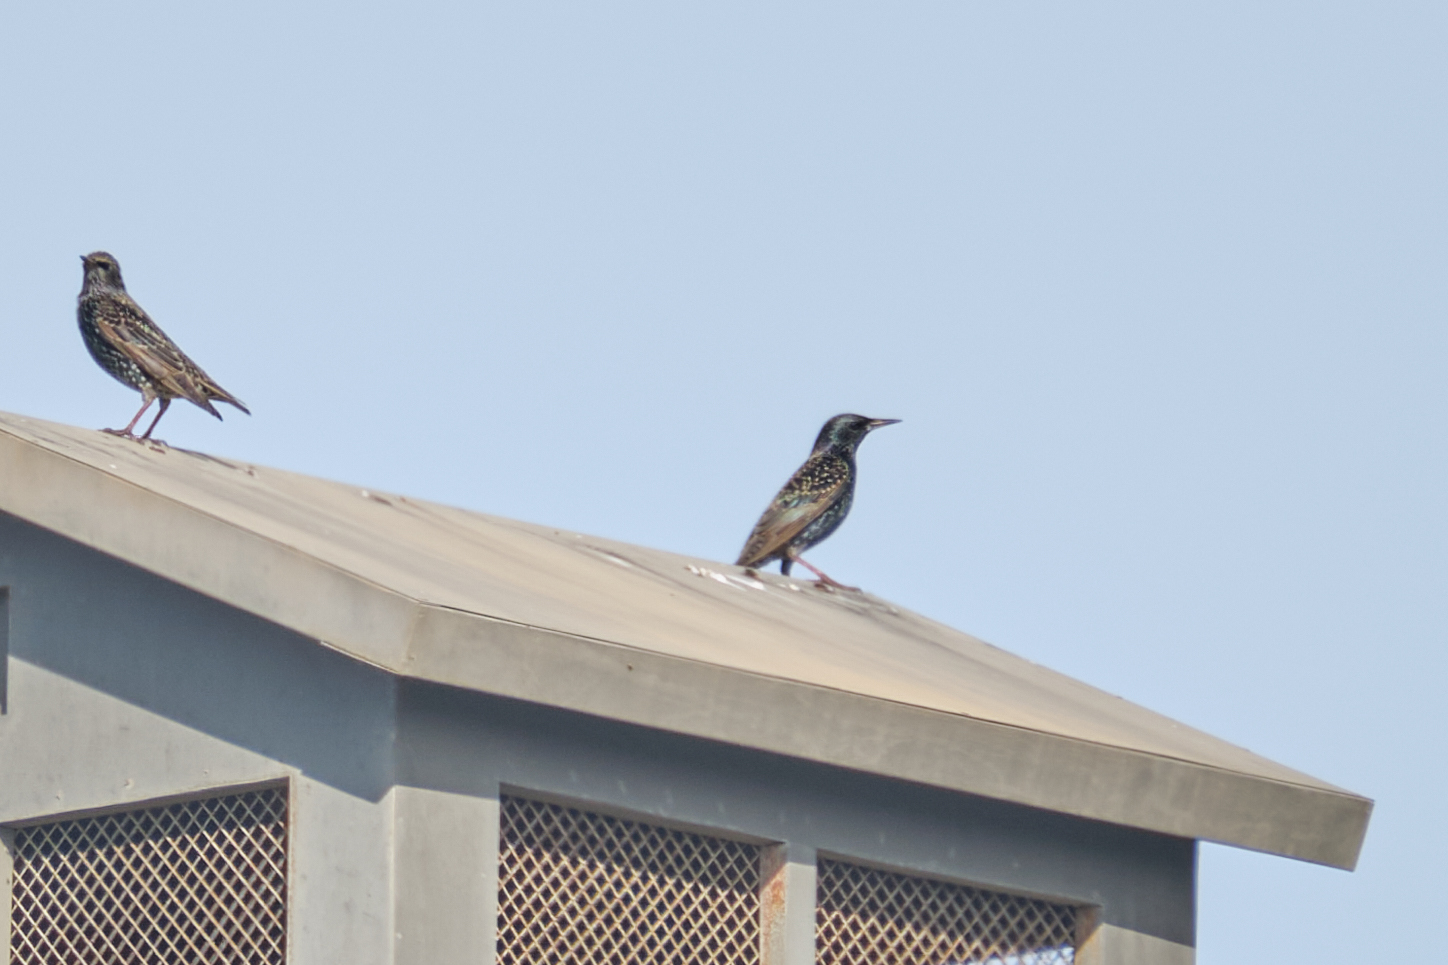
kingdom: Animalia
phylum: Chordata
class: Aves
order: Passeriformes
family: Sturnidae
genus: Sturnus
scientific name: Sturnus vulgaris
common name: Common starling
